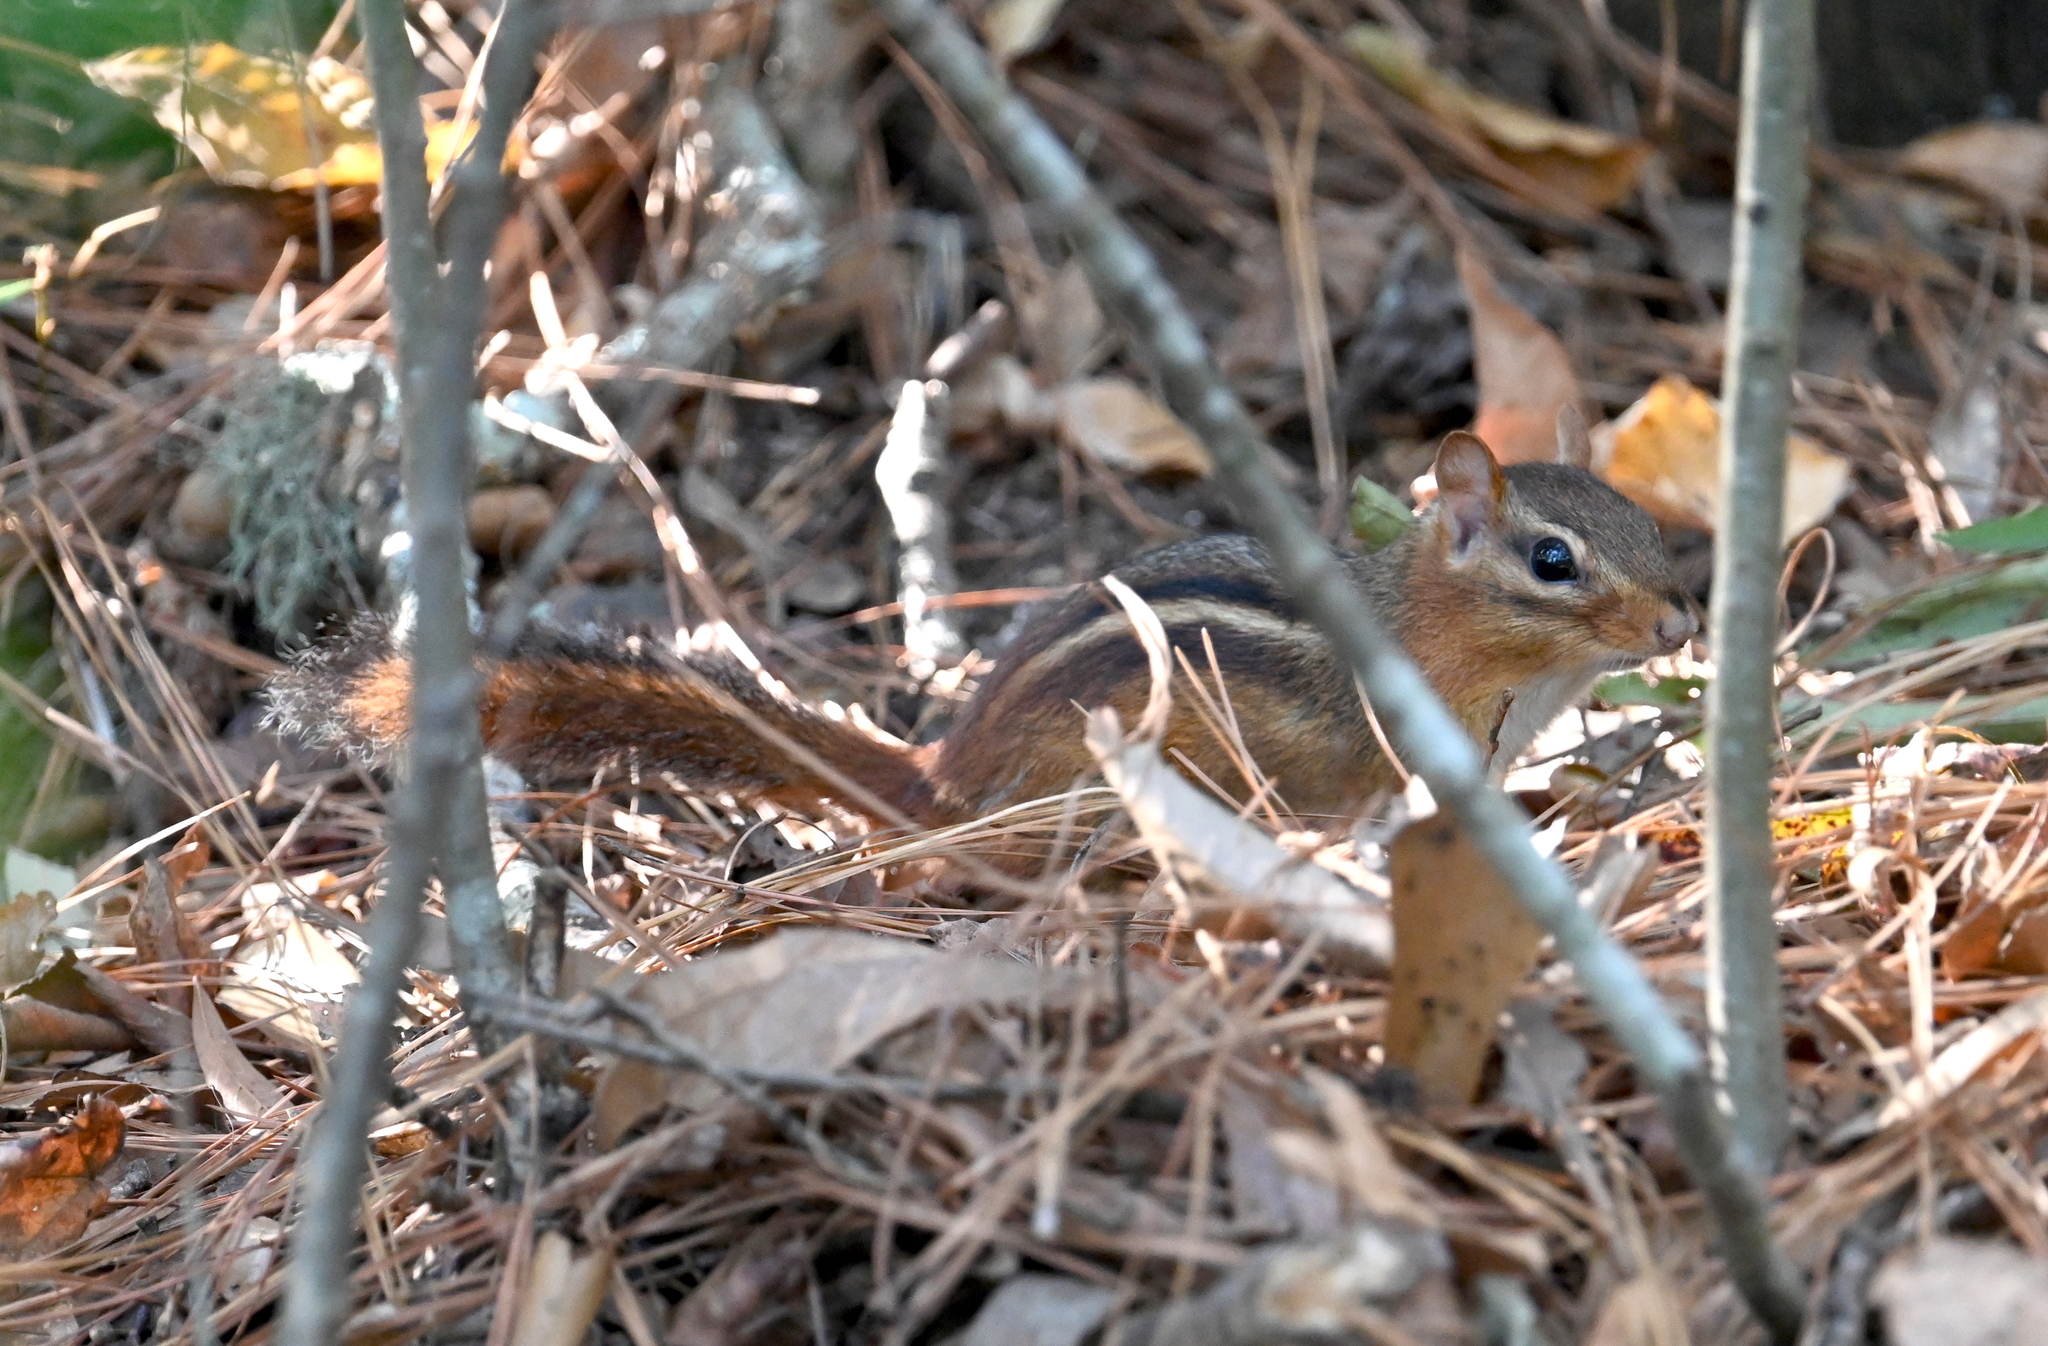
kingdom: Animalia
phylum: Chordata
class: Mammalia
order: Rodentia
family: Sciuridae
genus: Tamias
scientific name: Tamias striatus
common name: Eastern chipmunk
